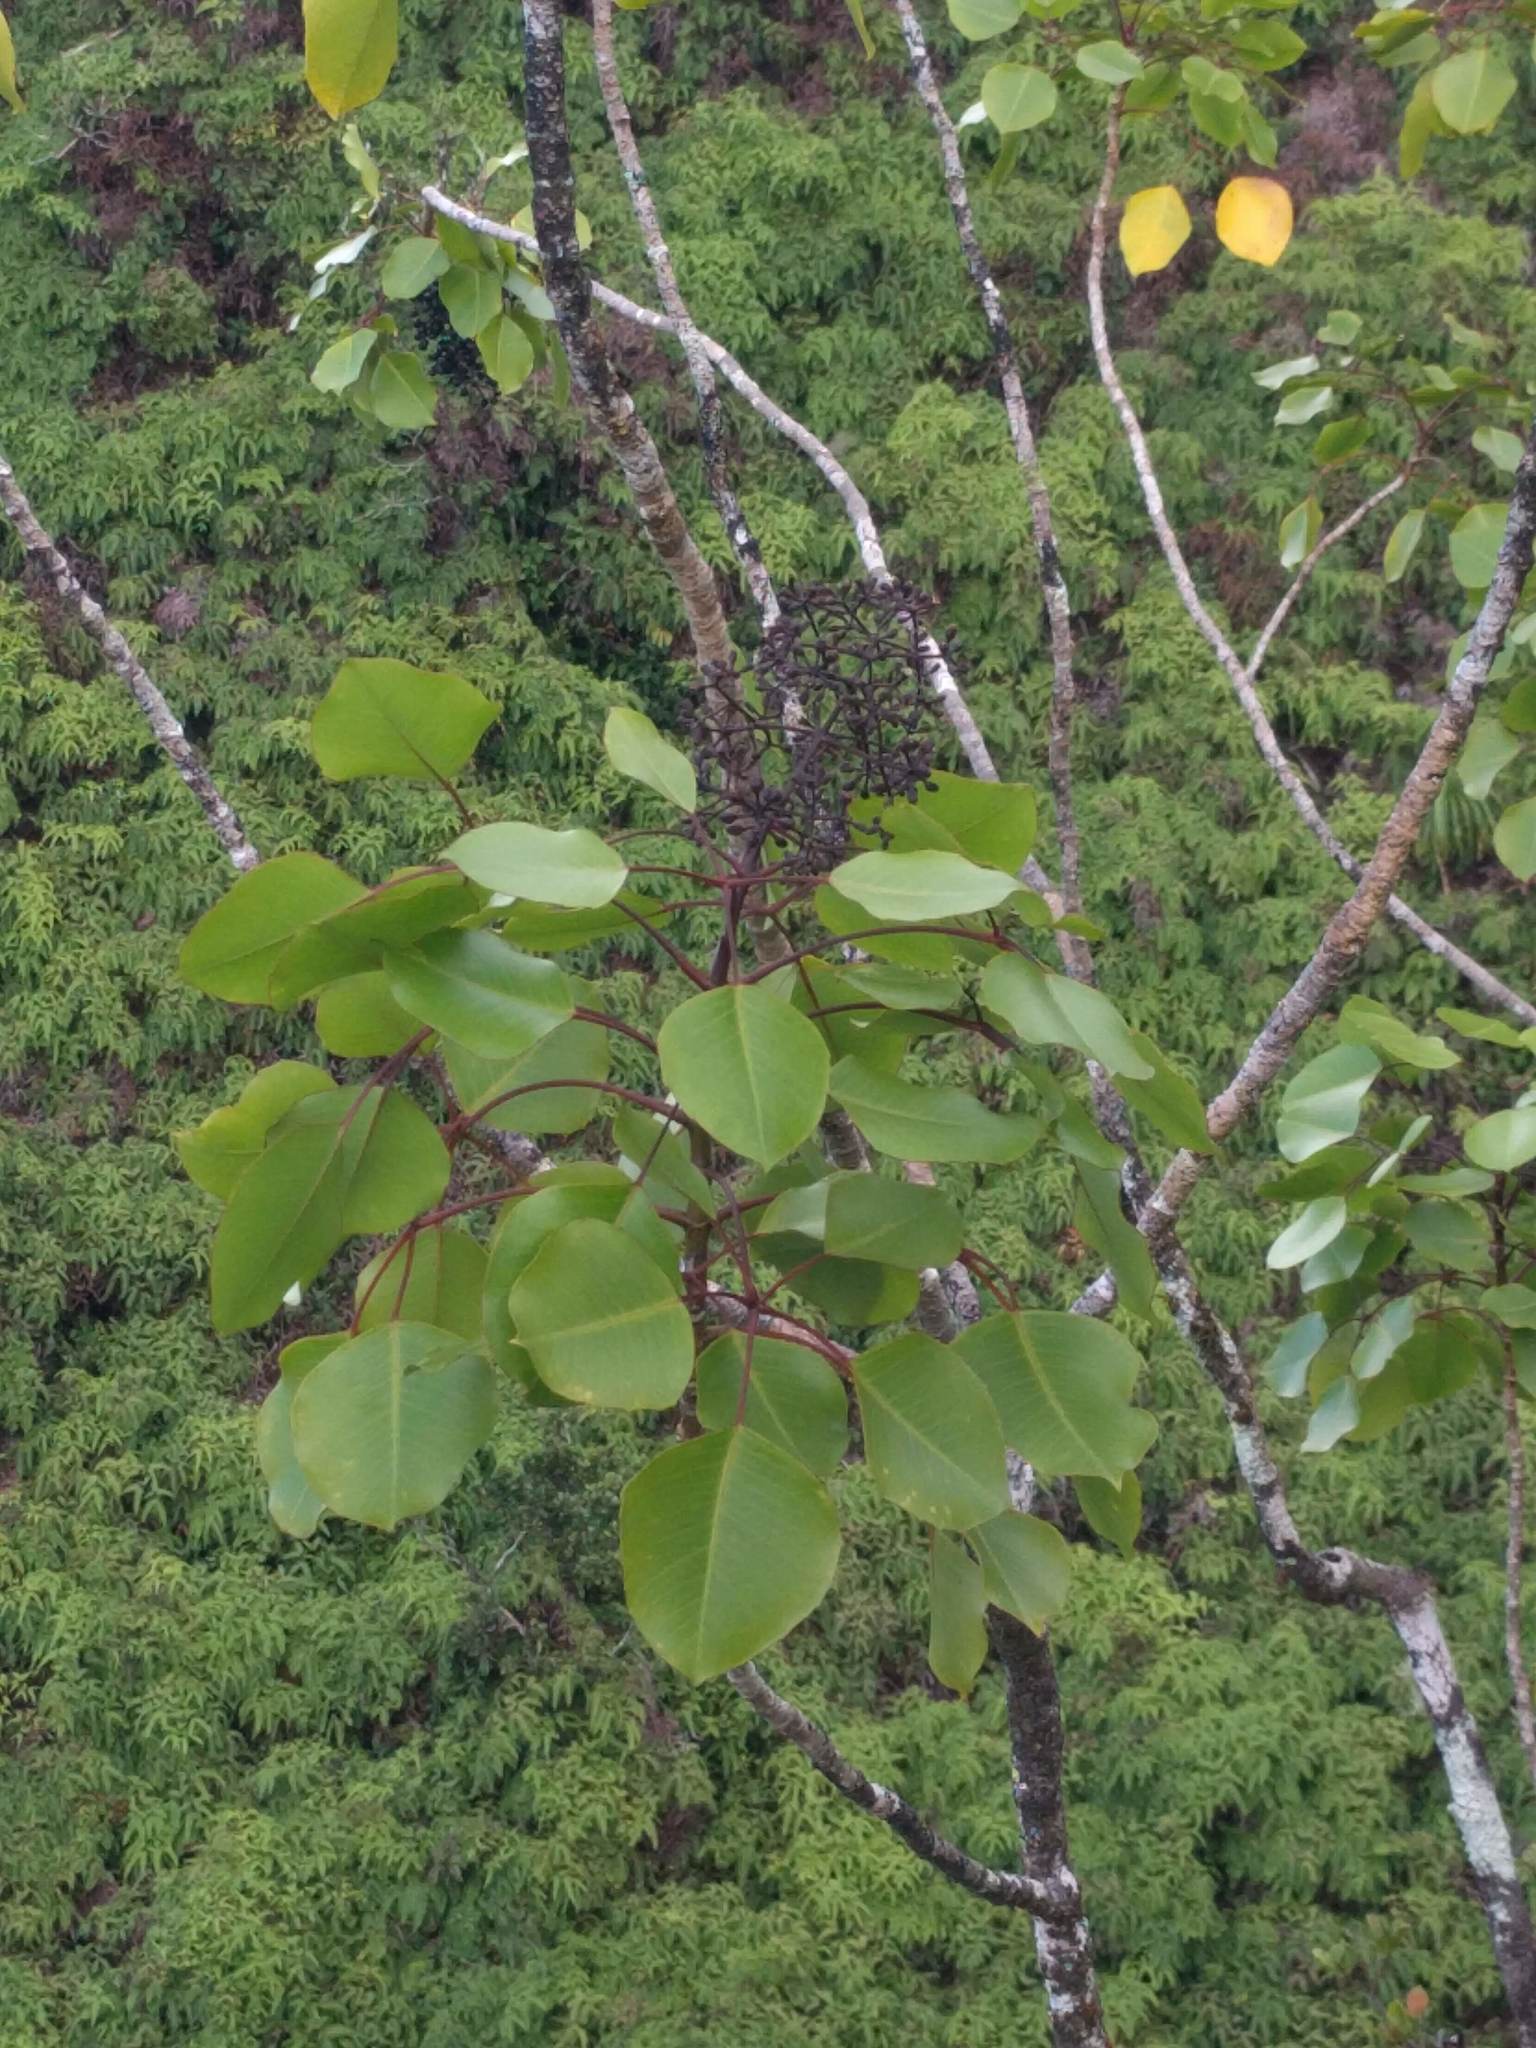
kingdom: Plantae
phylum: Tracheophyta
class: Magnoliopsida
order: Apiales
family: Araliaceae
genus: Cheirodendron
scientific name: Cheirodendron trigynum
